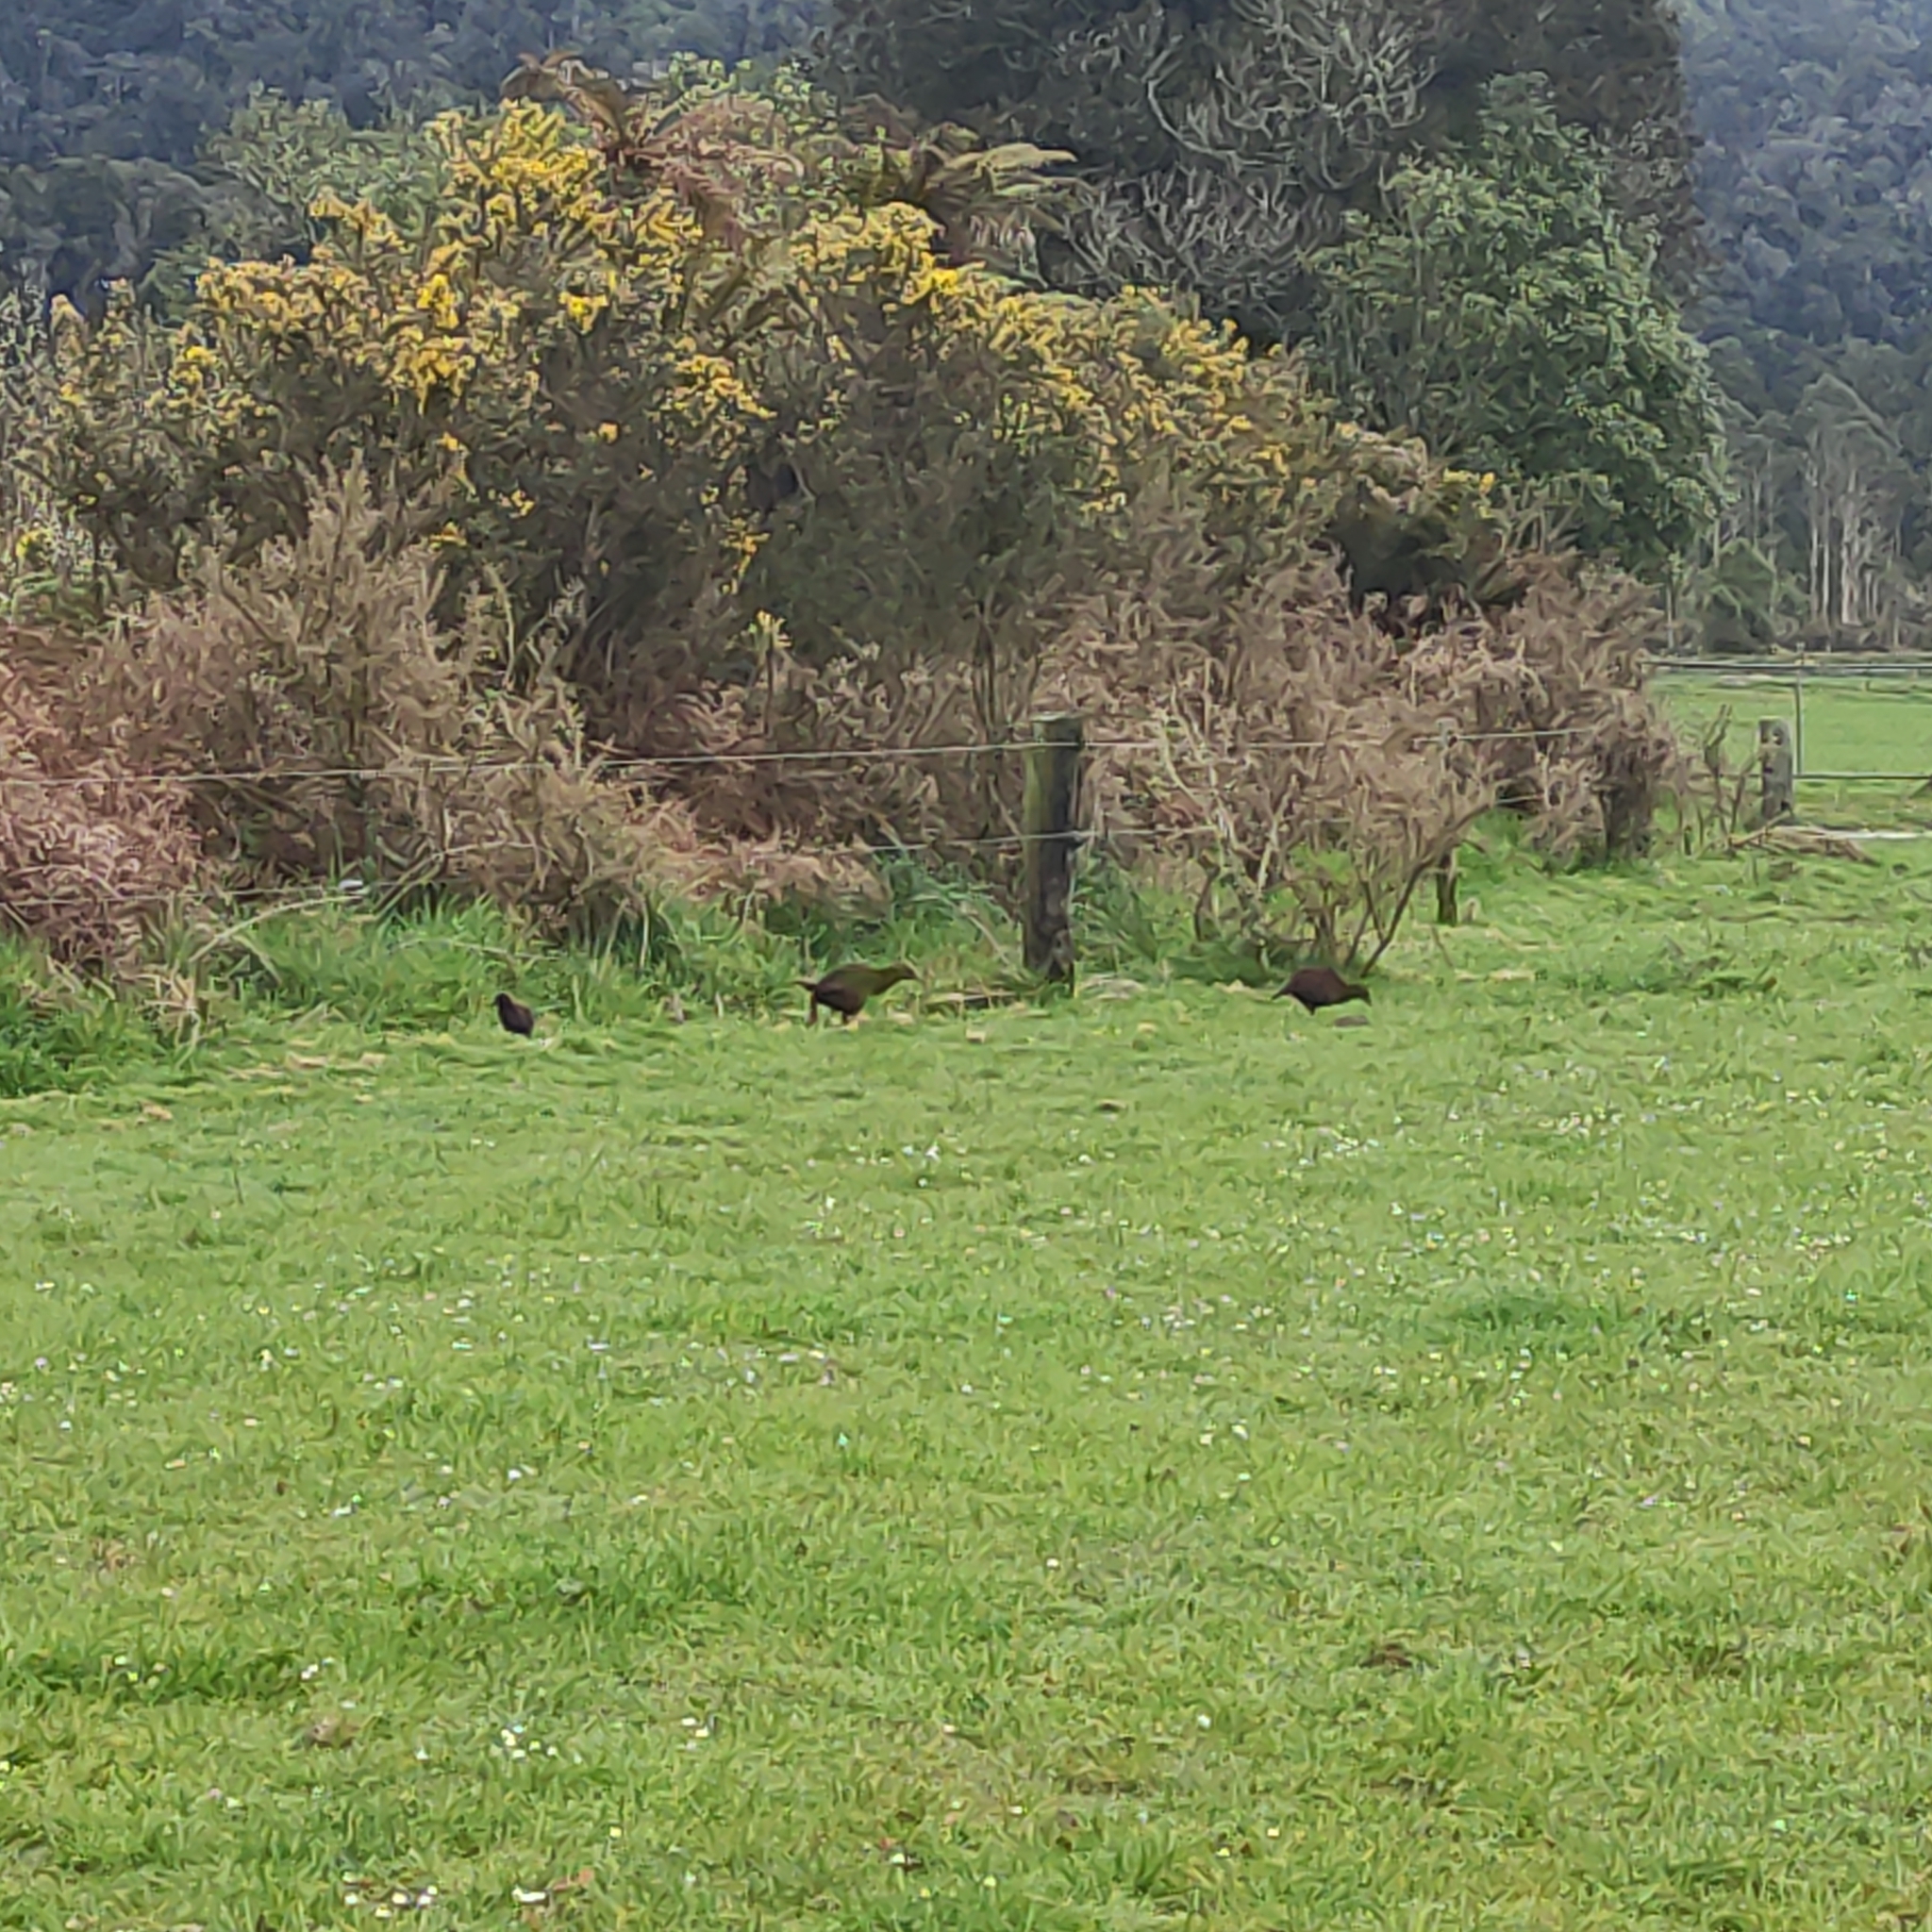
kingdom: Animalia
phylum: Chordata
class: Aves
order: Gruiformes
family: Rallidae
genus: Gallirallus
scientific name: Gallirallus australis
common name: Weka
